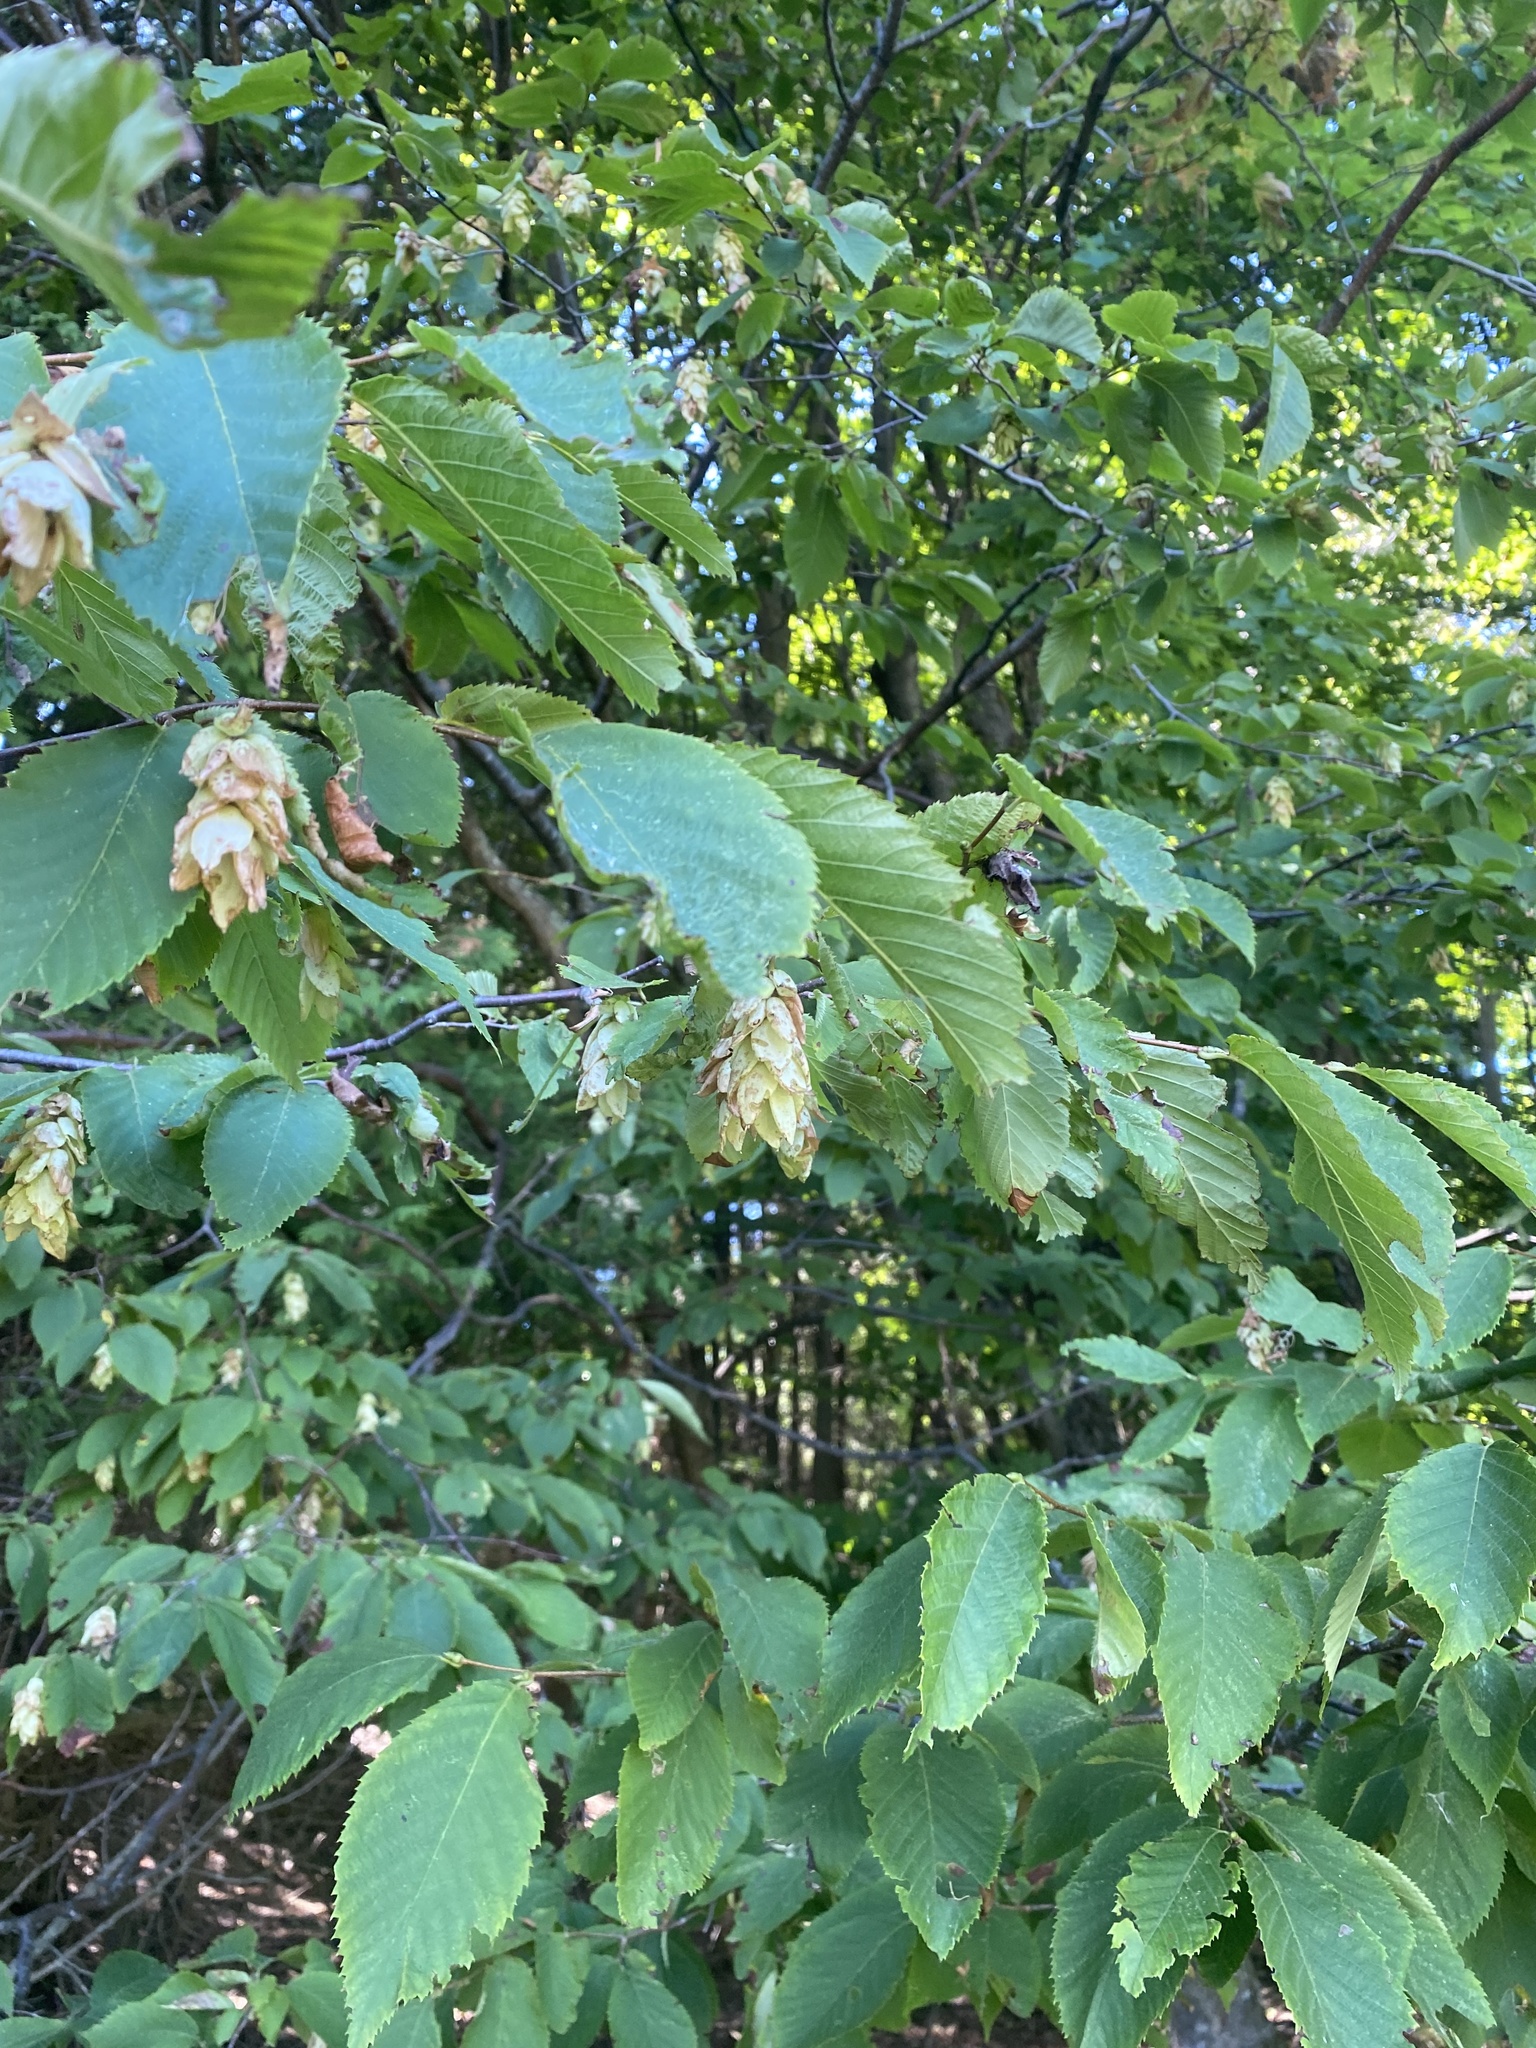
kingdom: Plantae
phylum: Tracheophyta
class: Magnoliopsida
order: Fagales
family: Betulaceae
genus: Ostrya
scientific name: Ostrya virginiana
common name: Ironwood
